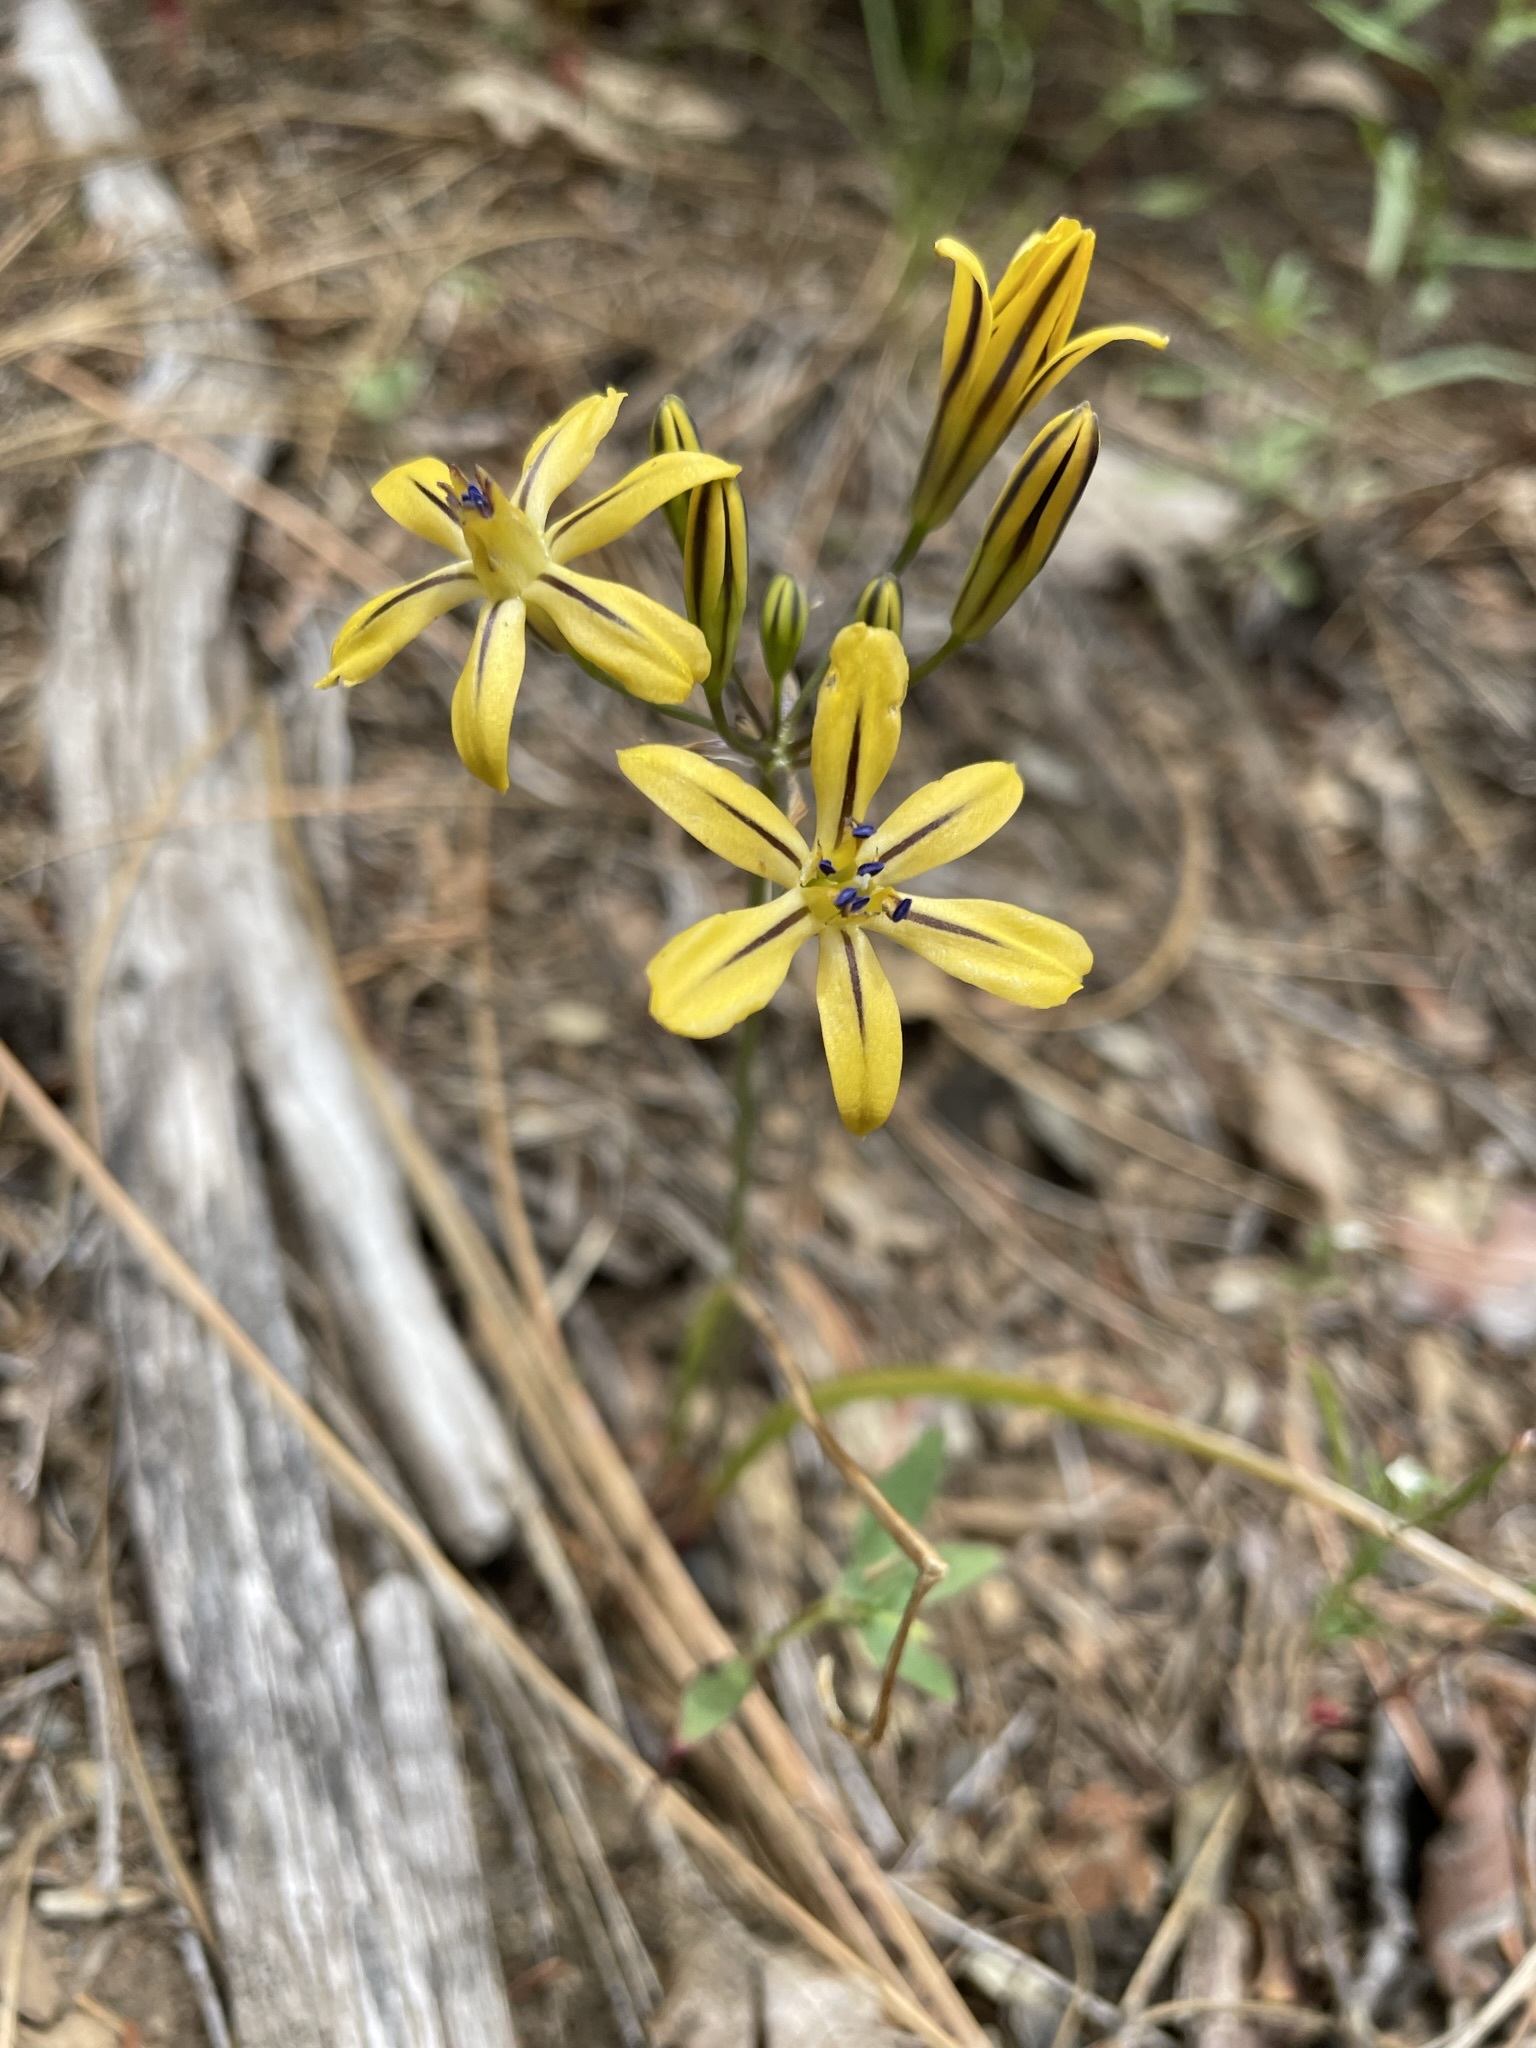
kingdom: Plantae
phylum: Tracheophyta
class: Liliopsida
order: Asparagales
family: Asparagaceae
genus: Triteleia
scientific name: Triteleia ixioides
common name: Yellow-brodiaea
